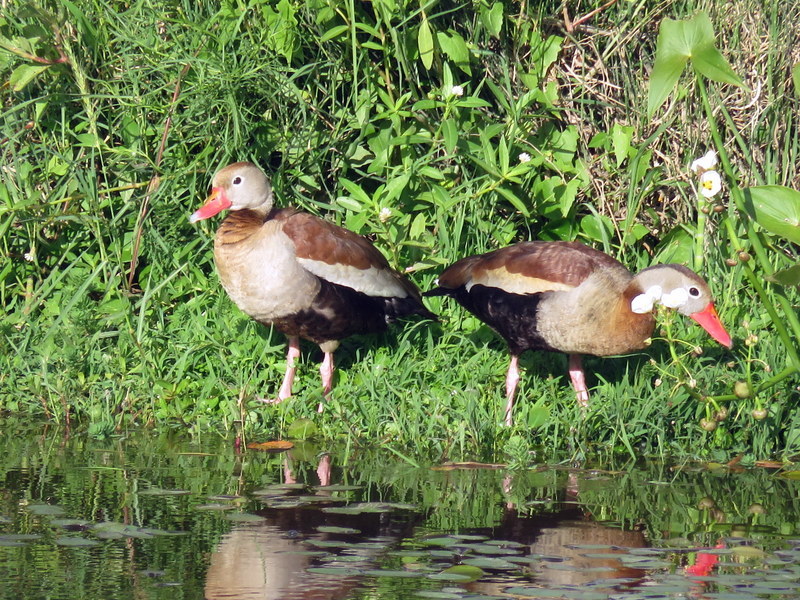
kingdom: Animalia
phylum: Chordata
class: Aves
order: Anseriformes
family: Anatidae
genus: Dendrocygna
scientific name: Dendrocygna autumnalis
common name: Black-bellied whistling duck
